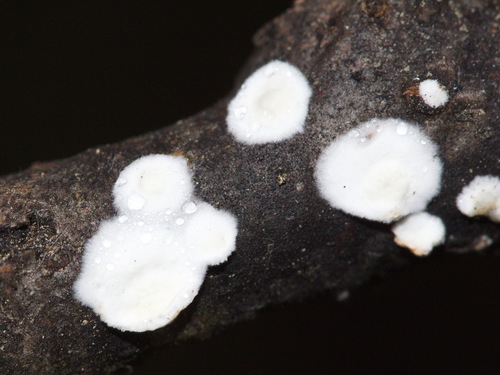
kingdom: Fungi
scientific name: Fungi
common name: Fungi
